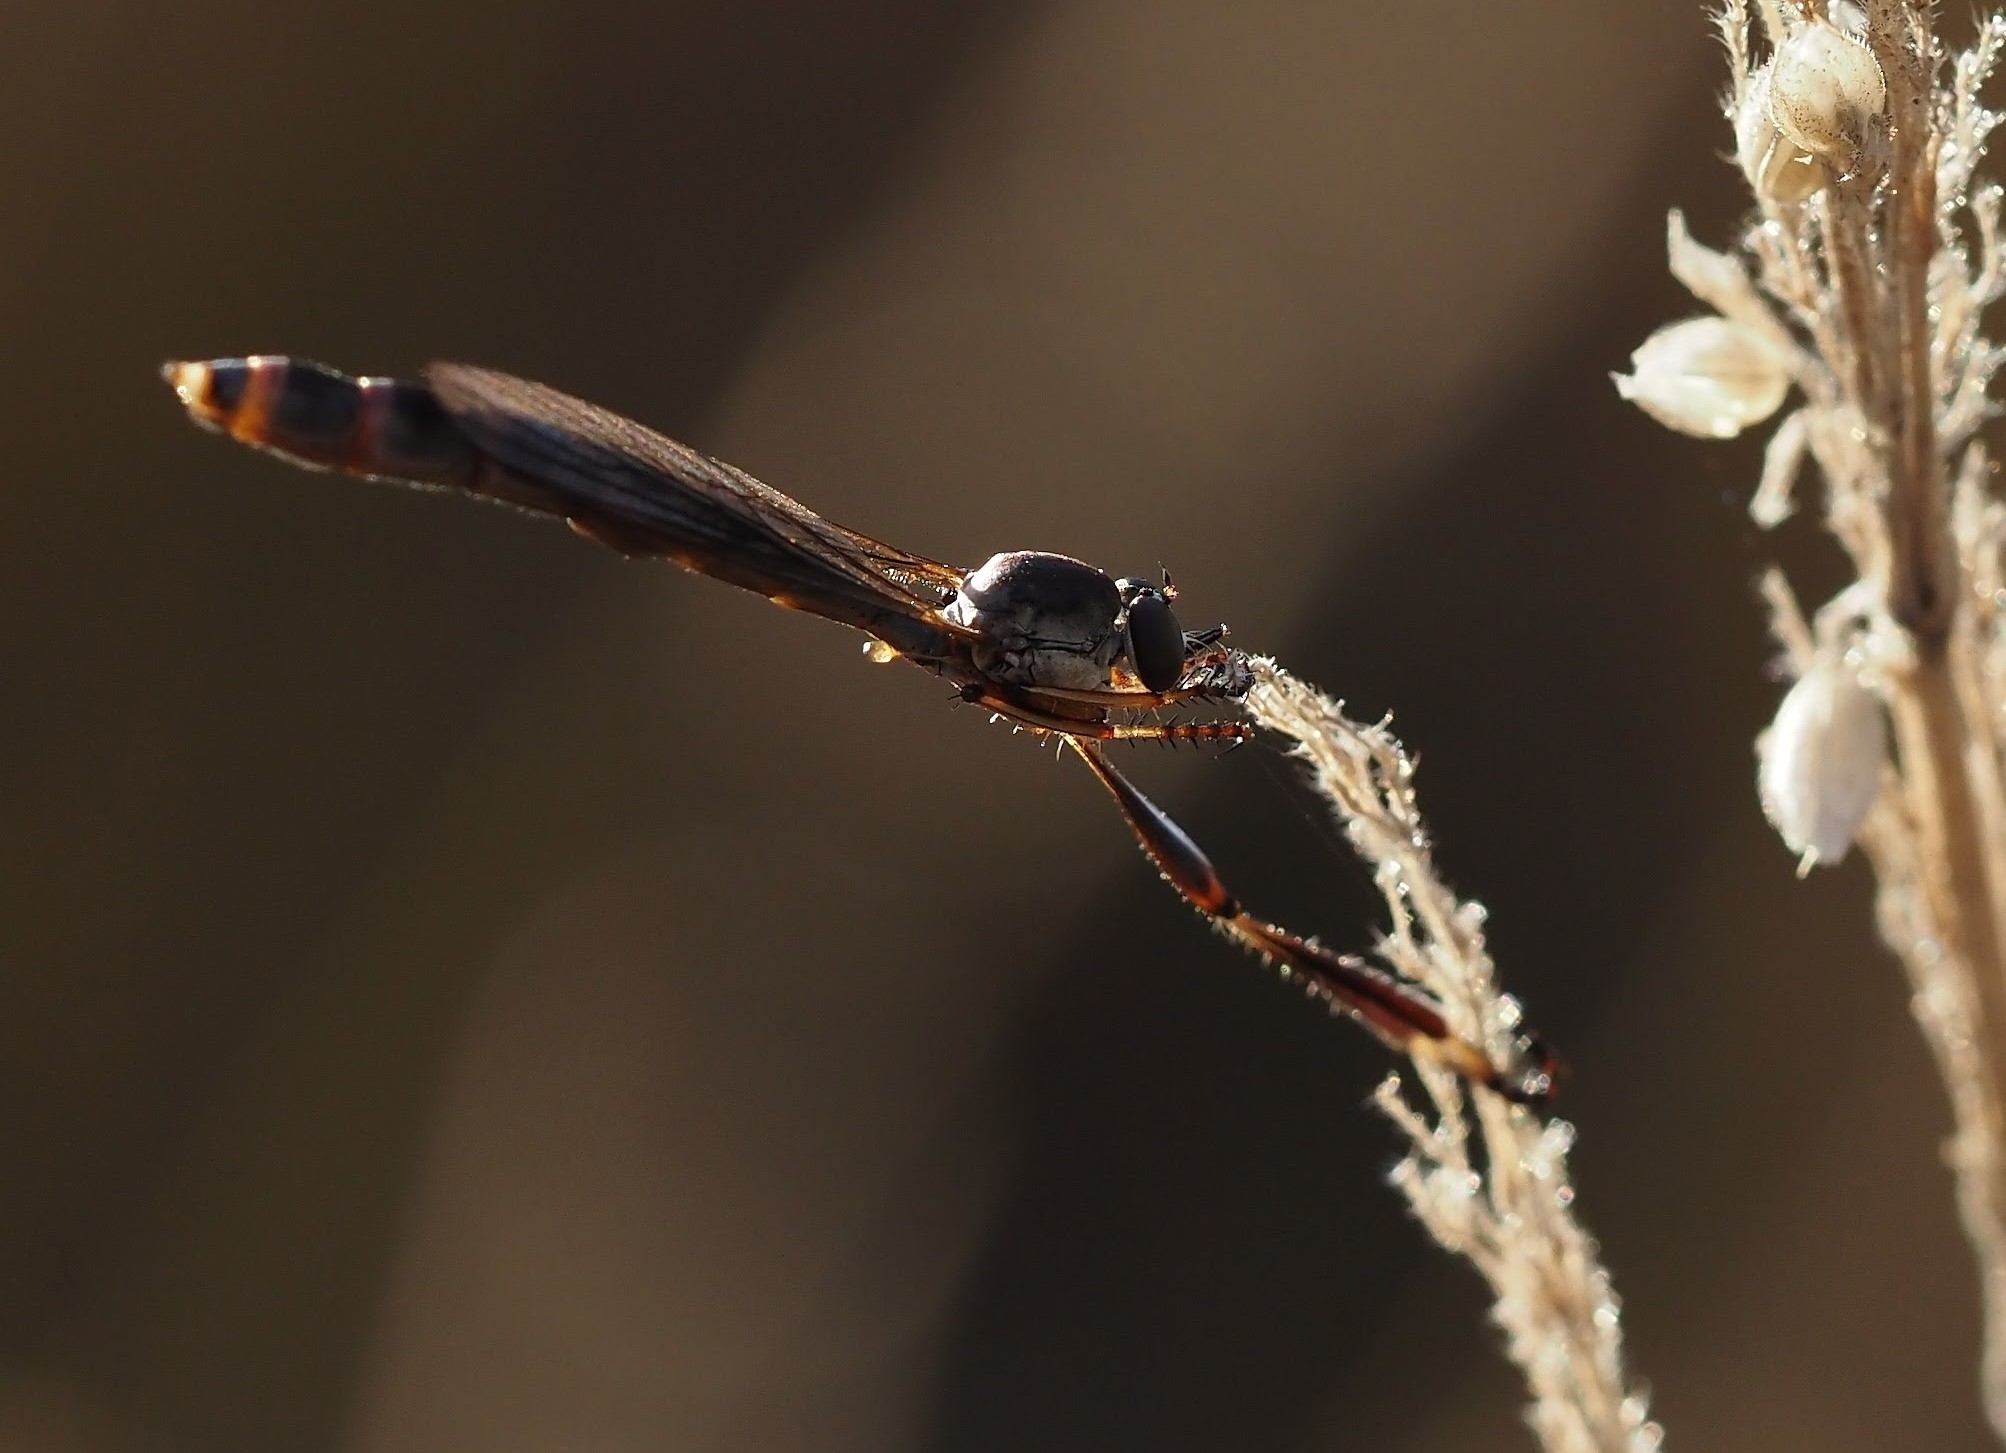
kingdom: Animalia
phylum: Arthropoda
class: Insecta
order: Diptera
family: Asilidae
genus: Leptogaster
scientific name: Leptogaster
